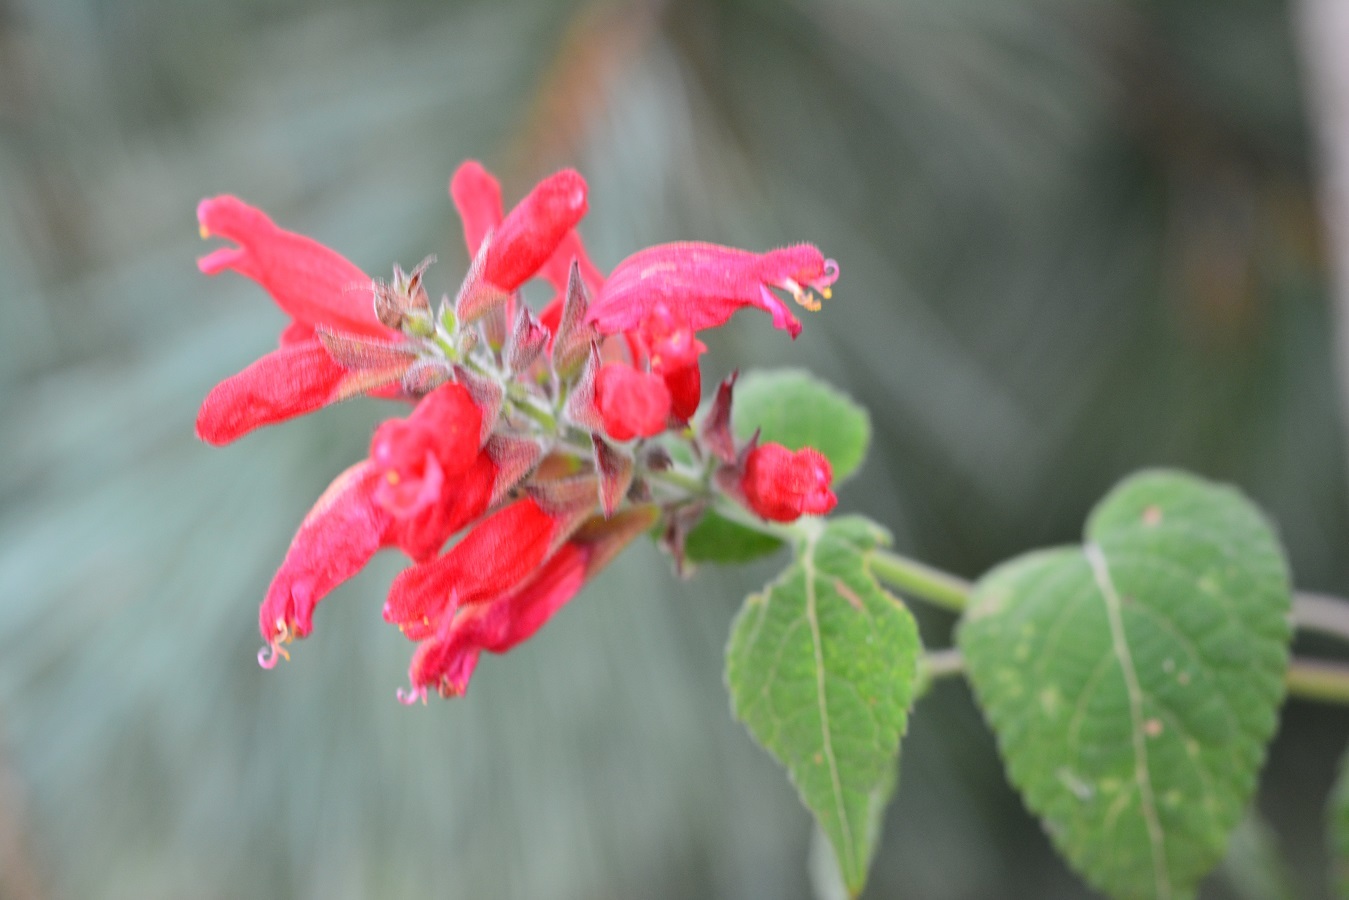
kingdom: Plantae
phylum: Tracheophyta
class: Magnoliopsida
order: Lamiales
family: Lamiaceae
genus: Salvia
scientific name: Salvia holwayi
